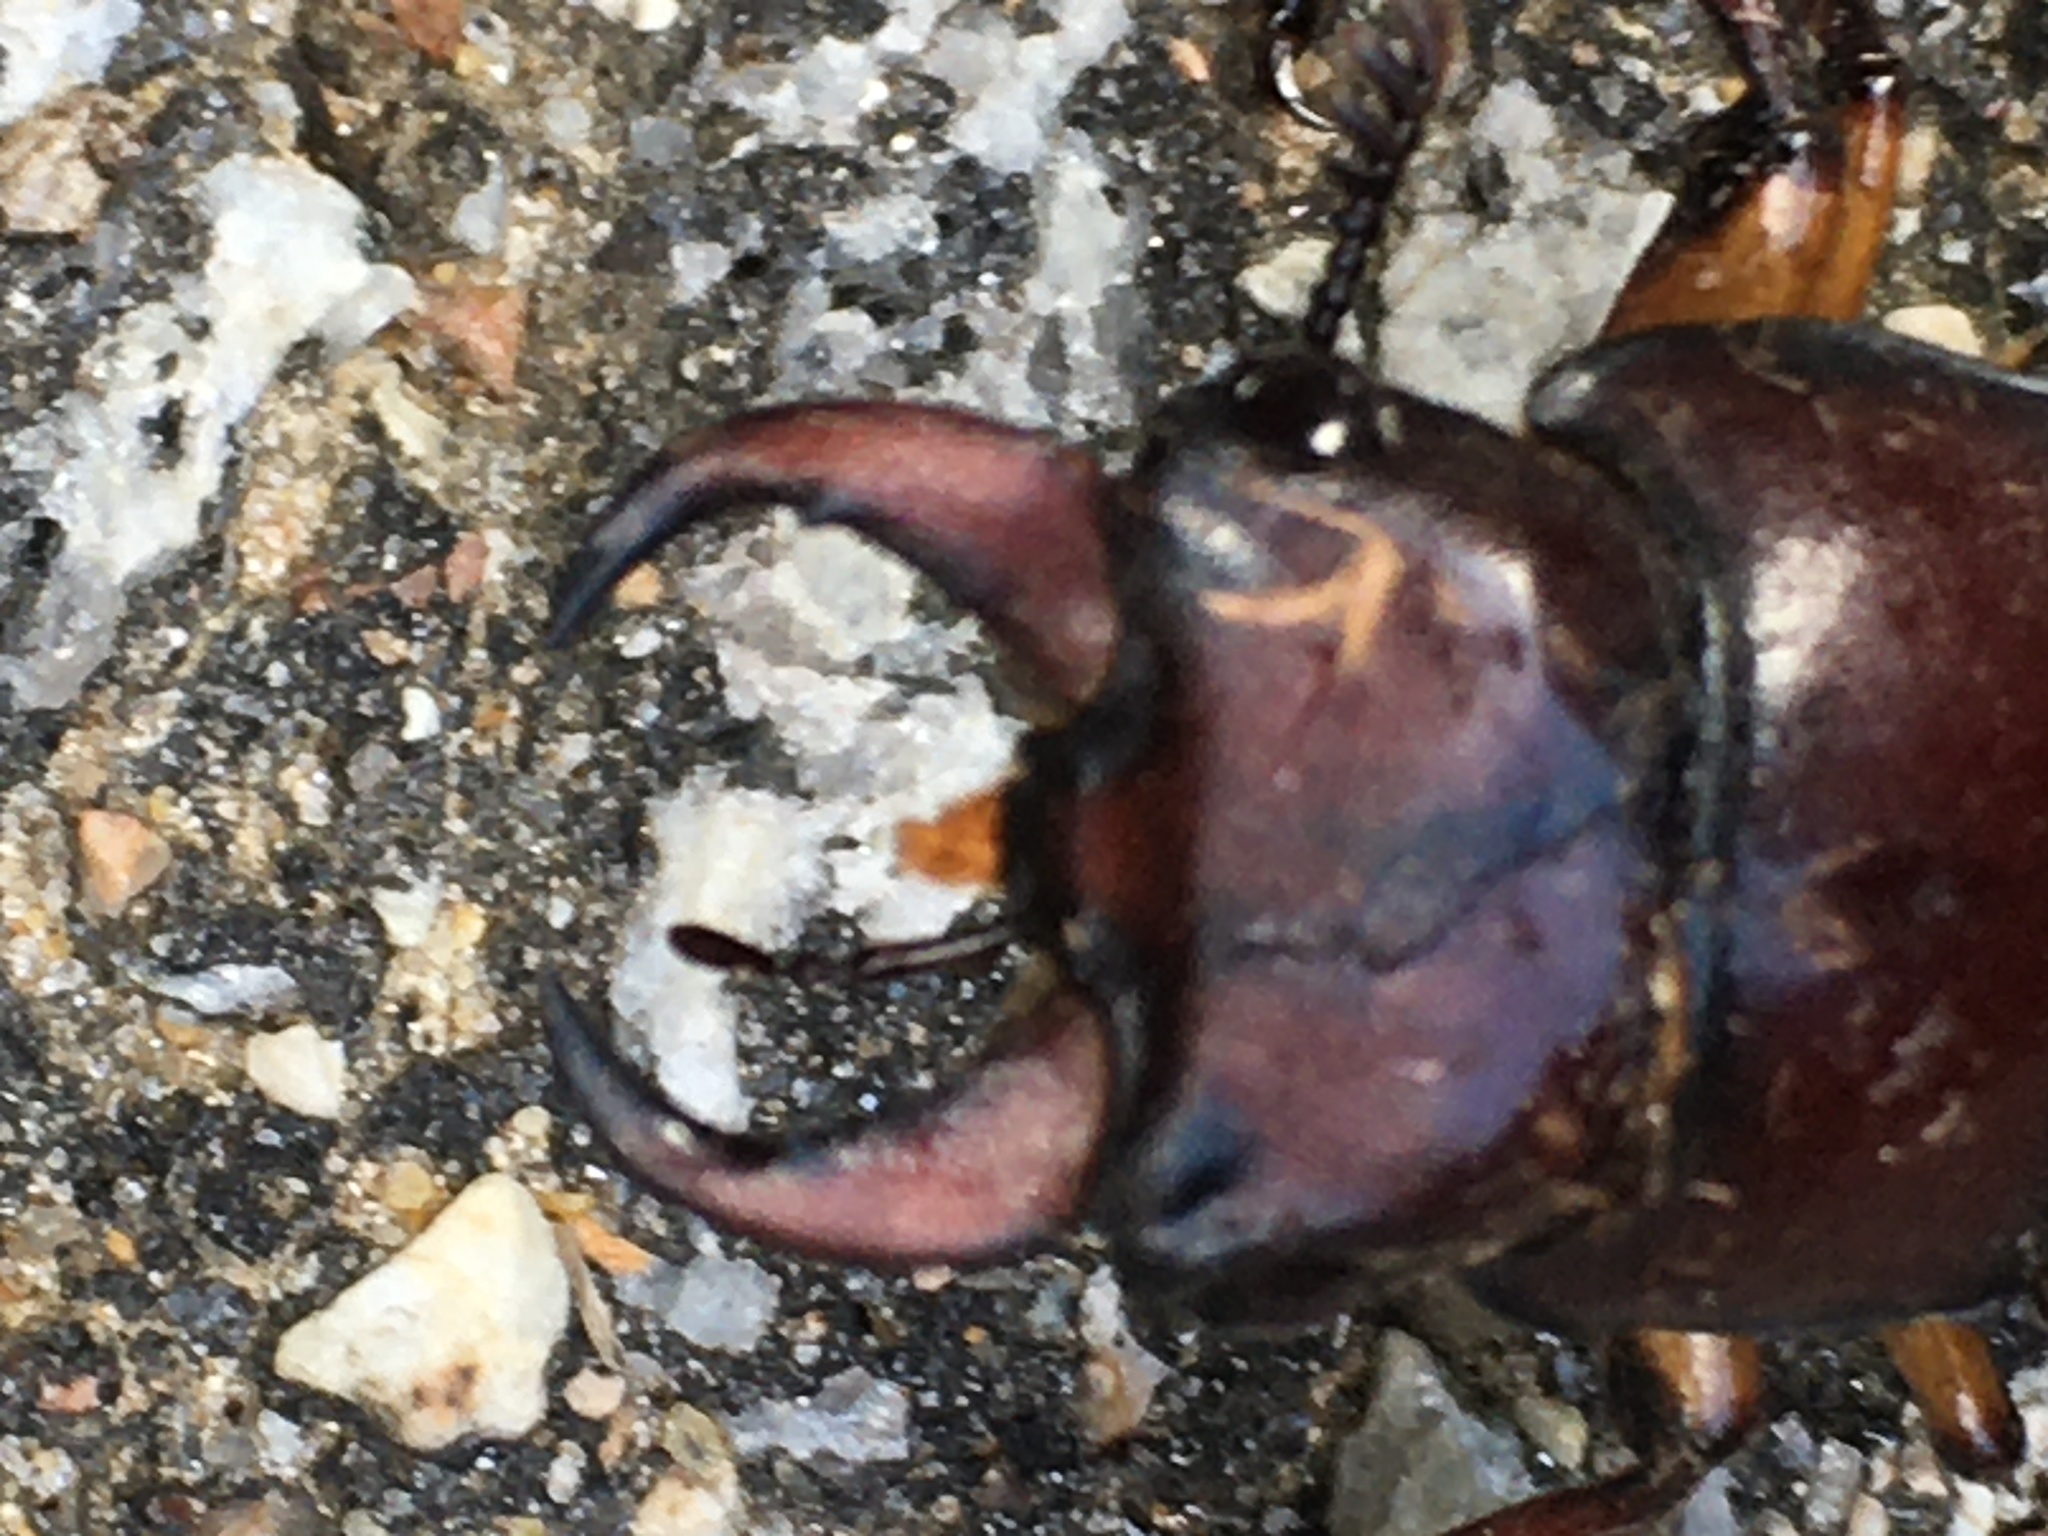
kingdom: Animalia
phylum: Arthropoda
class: Insecta
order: Coleoptera
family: Lucanidae
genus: Lucanus
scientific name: Lucanus capreolus
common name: Stag beetle
